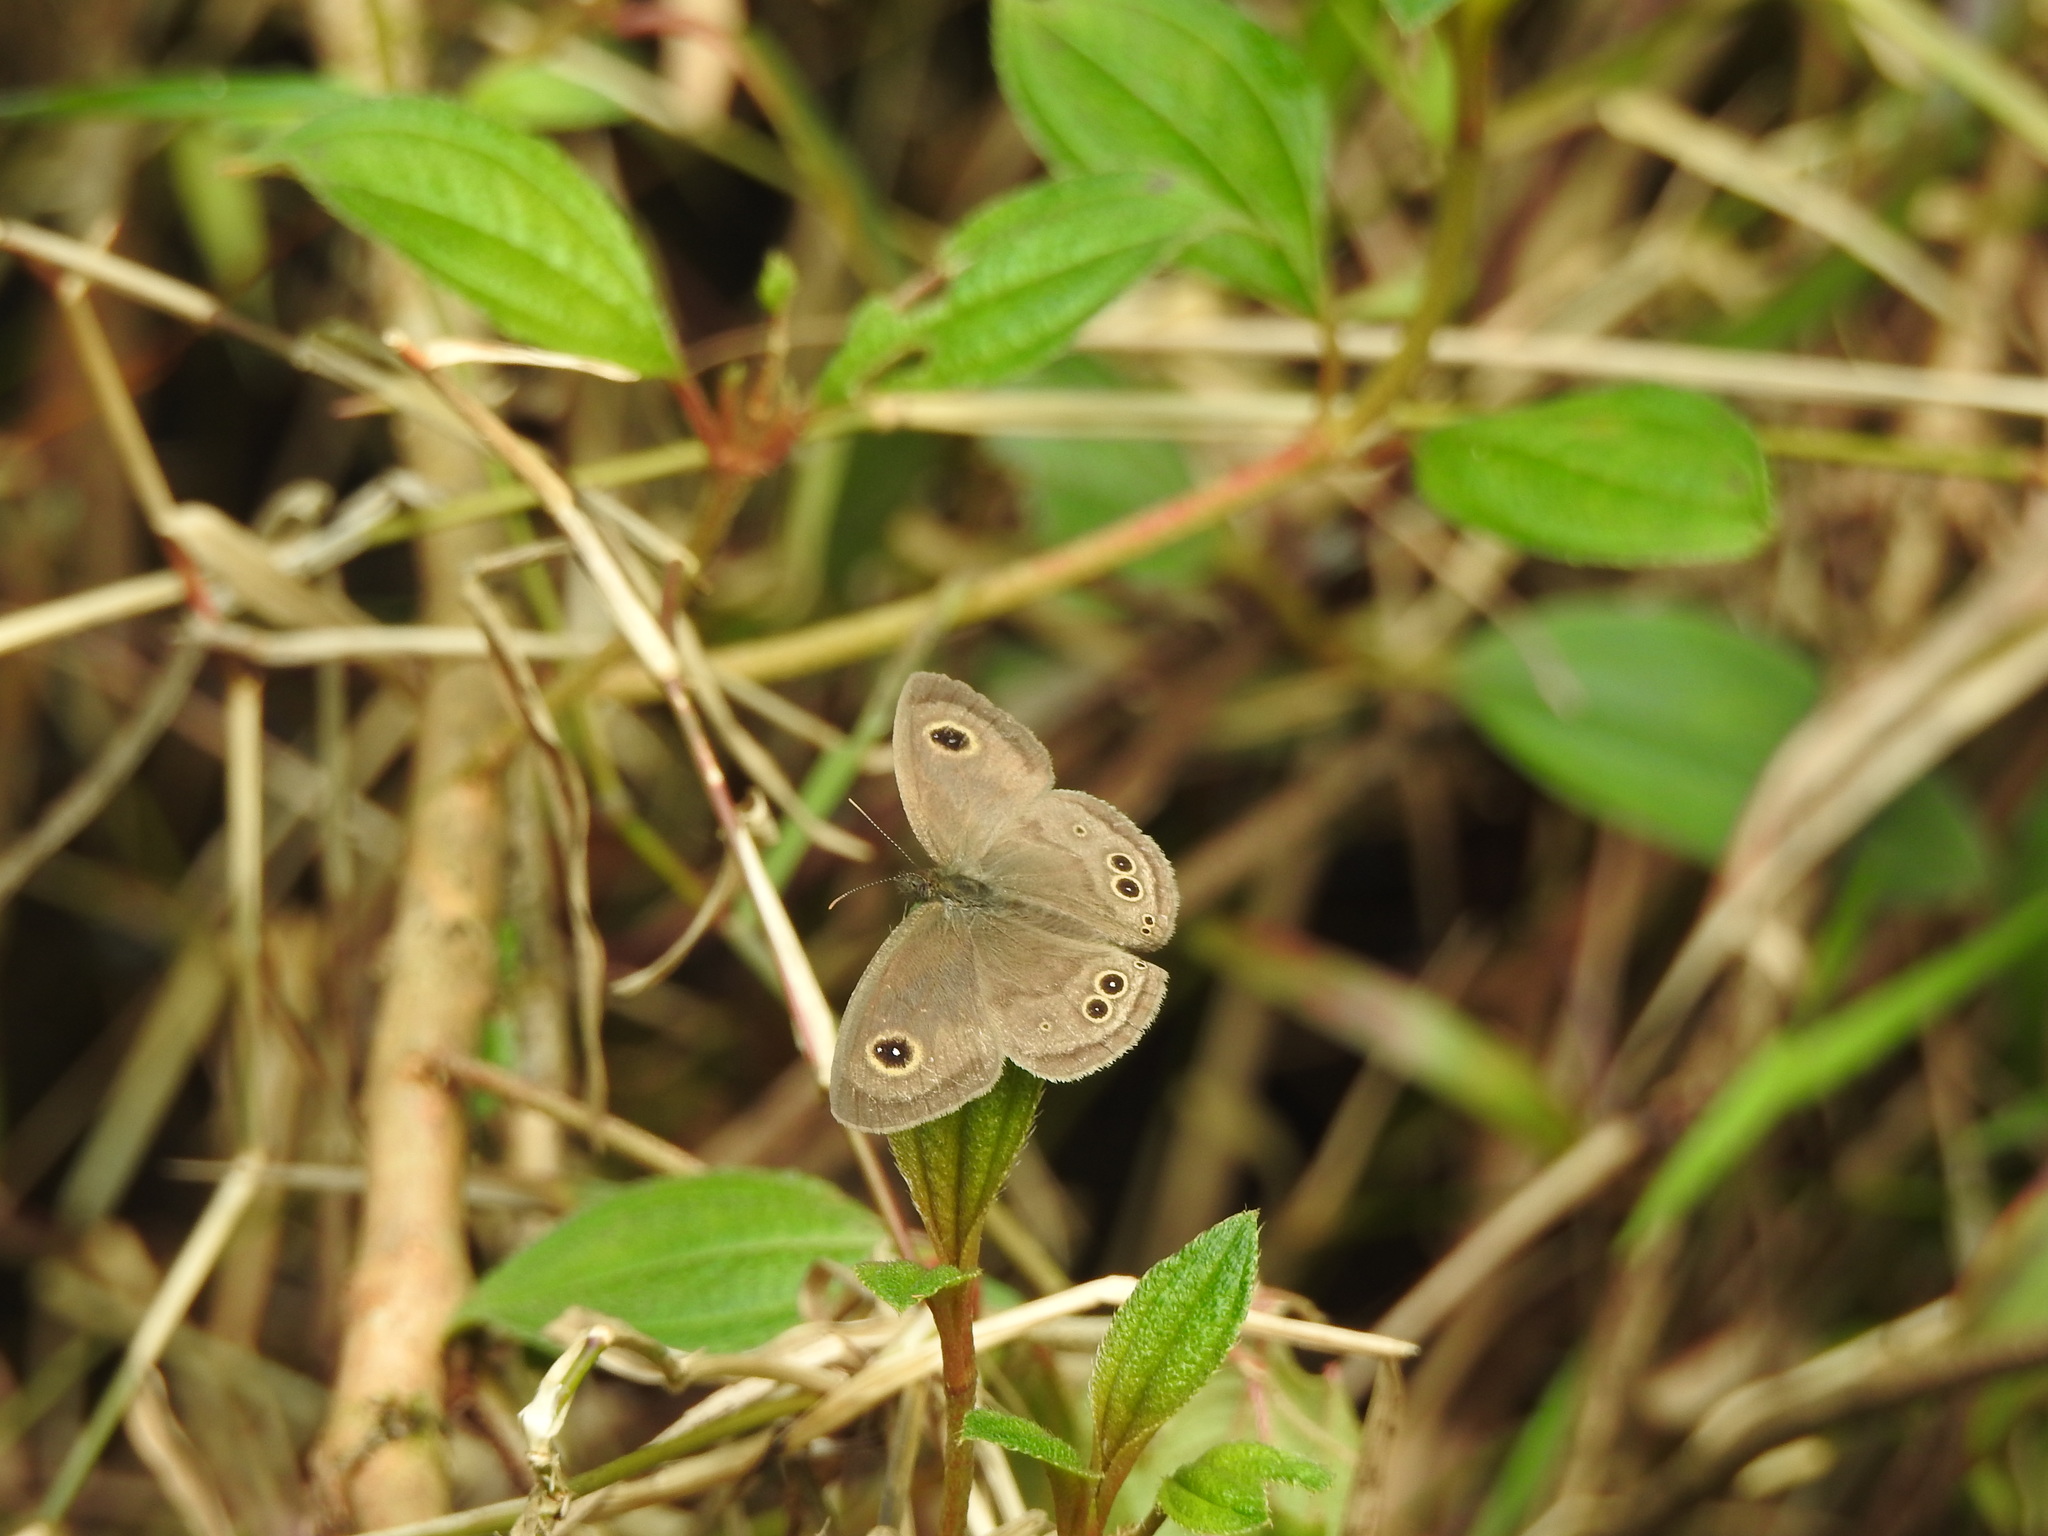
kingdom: Animalia
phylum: Arthropoda
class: Insecta
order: Lepidoptera
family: Nymphalidae
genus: Ypthima
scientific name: Ypthima baldus
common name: Common five-ring
